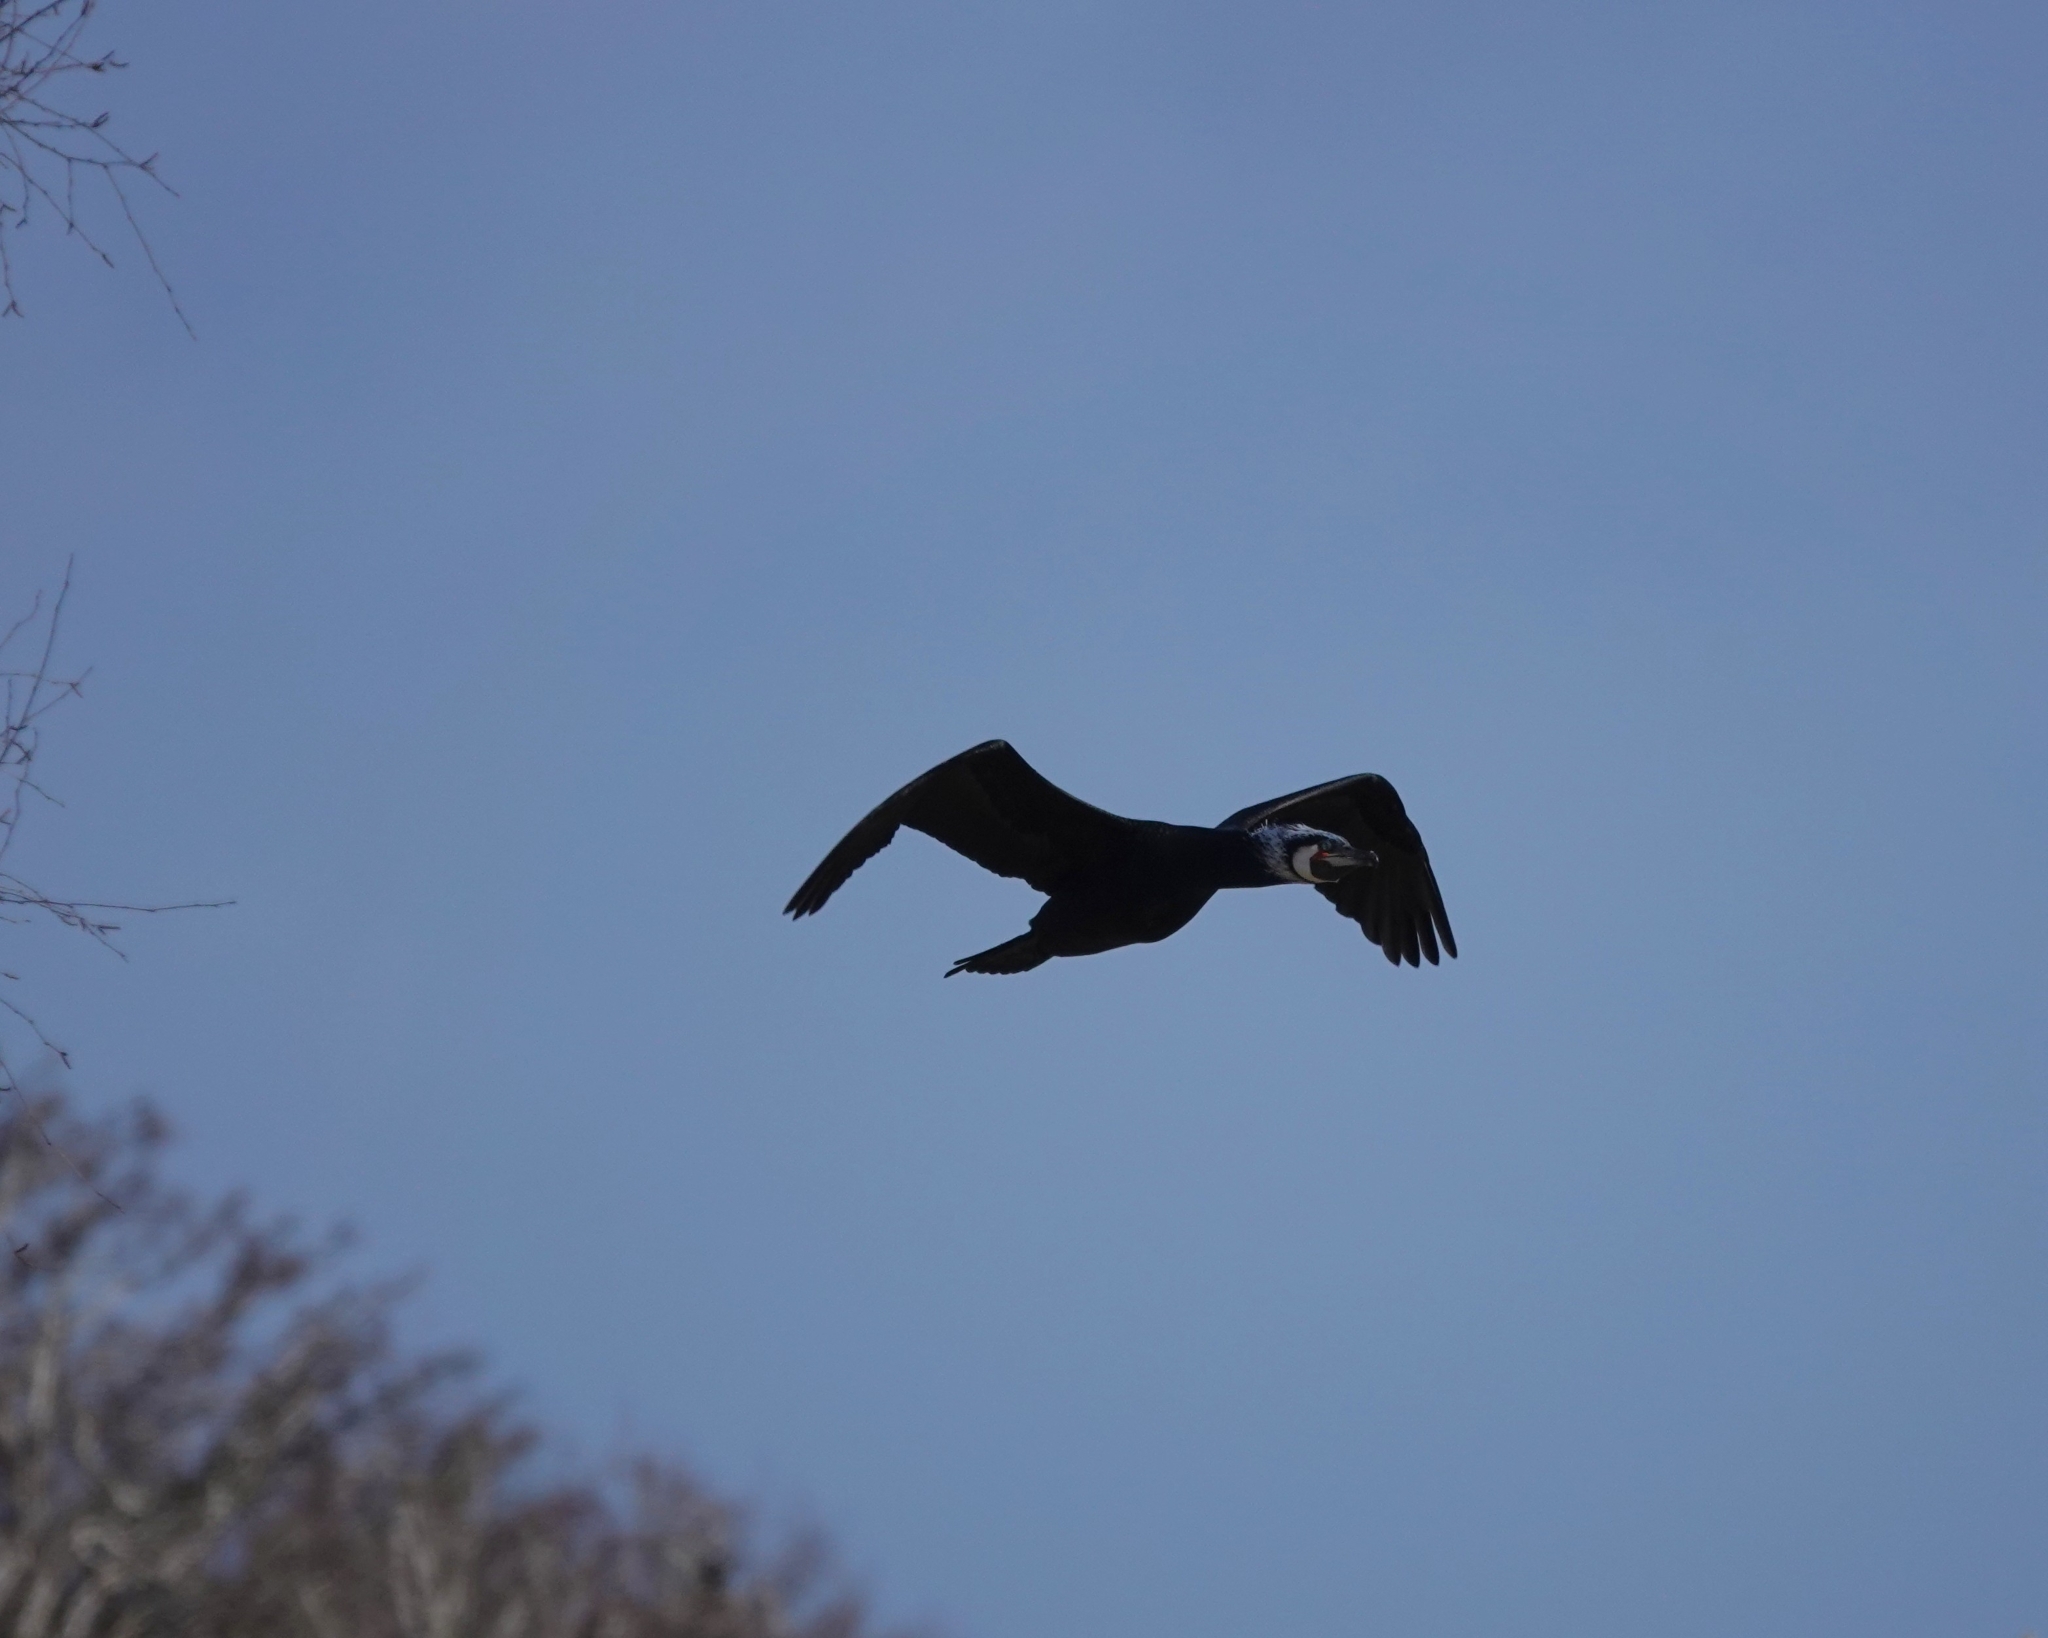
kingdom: Animalia
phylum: Chordata
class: Aves
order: Suliformes
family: Phalacrocoracidae
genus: Phalacrocorax
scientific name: Phalacrocorax carbo
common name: Great cormorant
